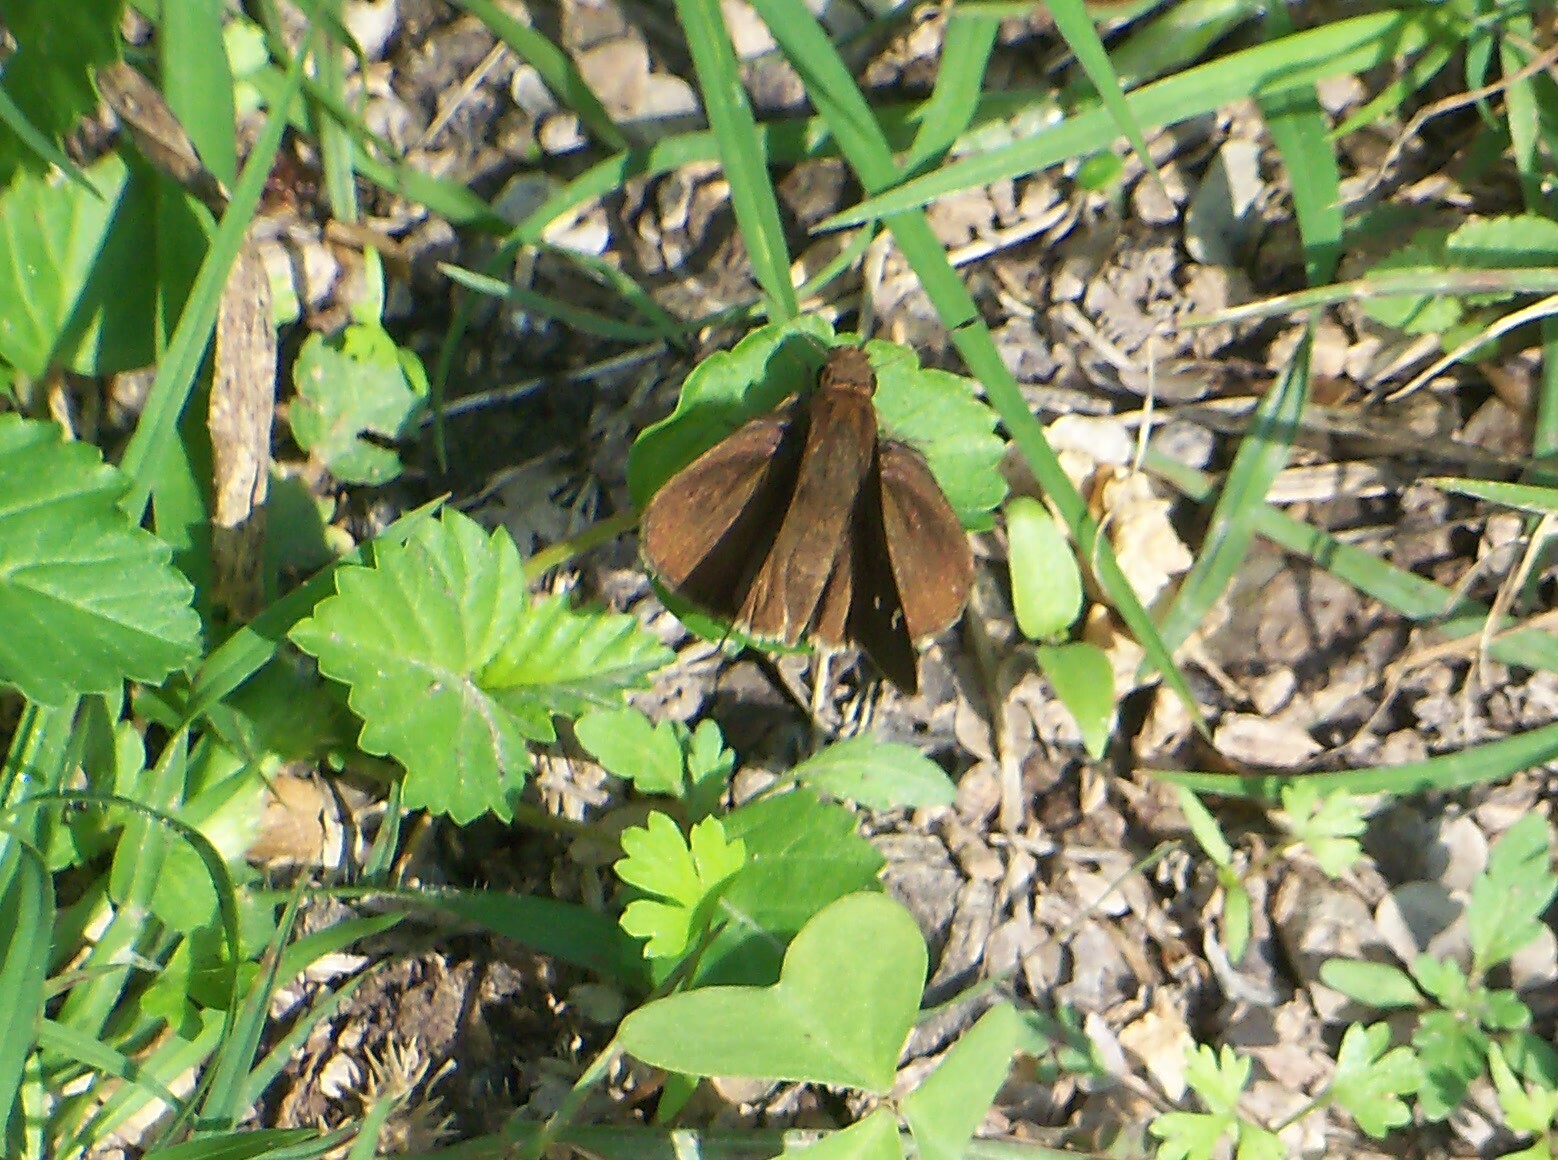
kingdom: Animalia
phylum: Arthropoda
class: Insecta
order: Lepidoptera
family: Hesperiidae
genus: Lerema
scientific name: Lerema accius
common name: Clouded skipper
